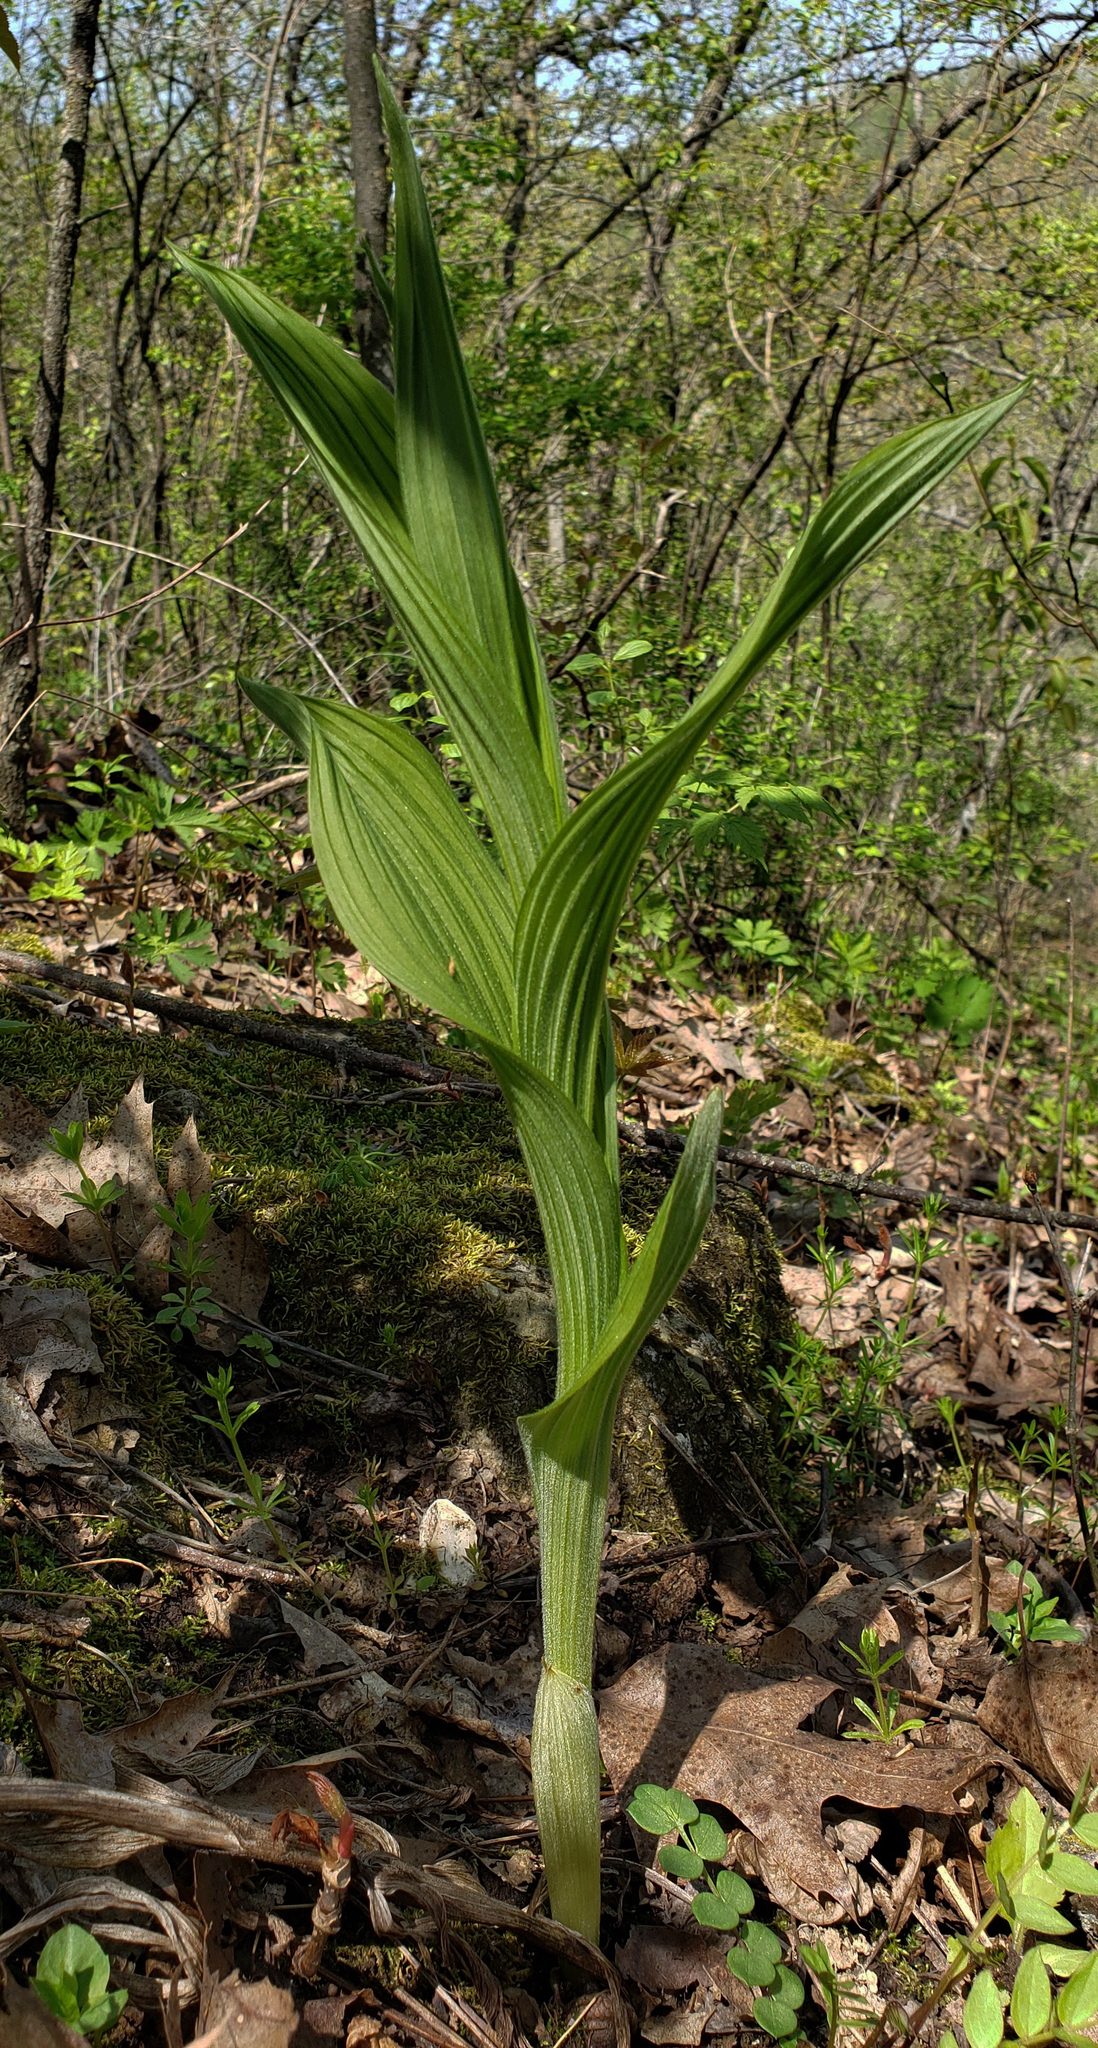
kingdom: Plantae
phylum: Tracheophyta
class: Liliopsida
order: Asparagales
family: Orchidaceae
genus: Cypripedium
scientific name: Cypripedium parviflorum
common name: American yellow lady's-slipper
